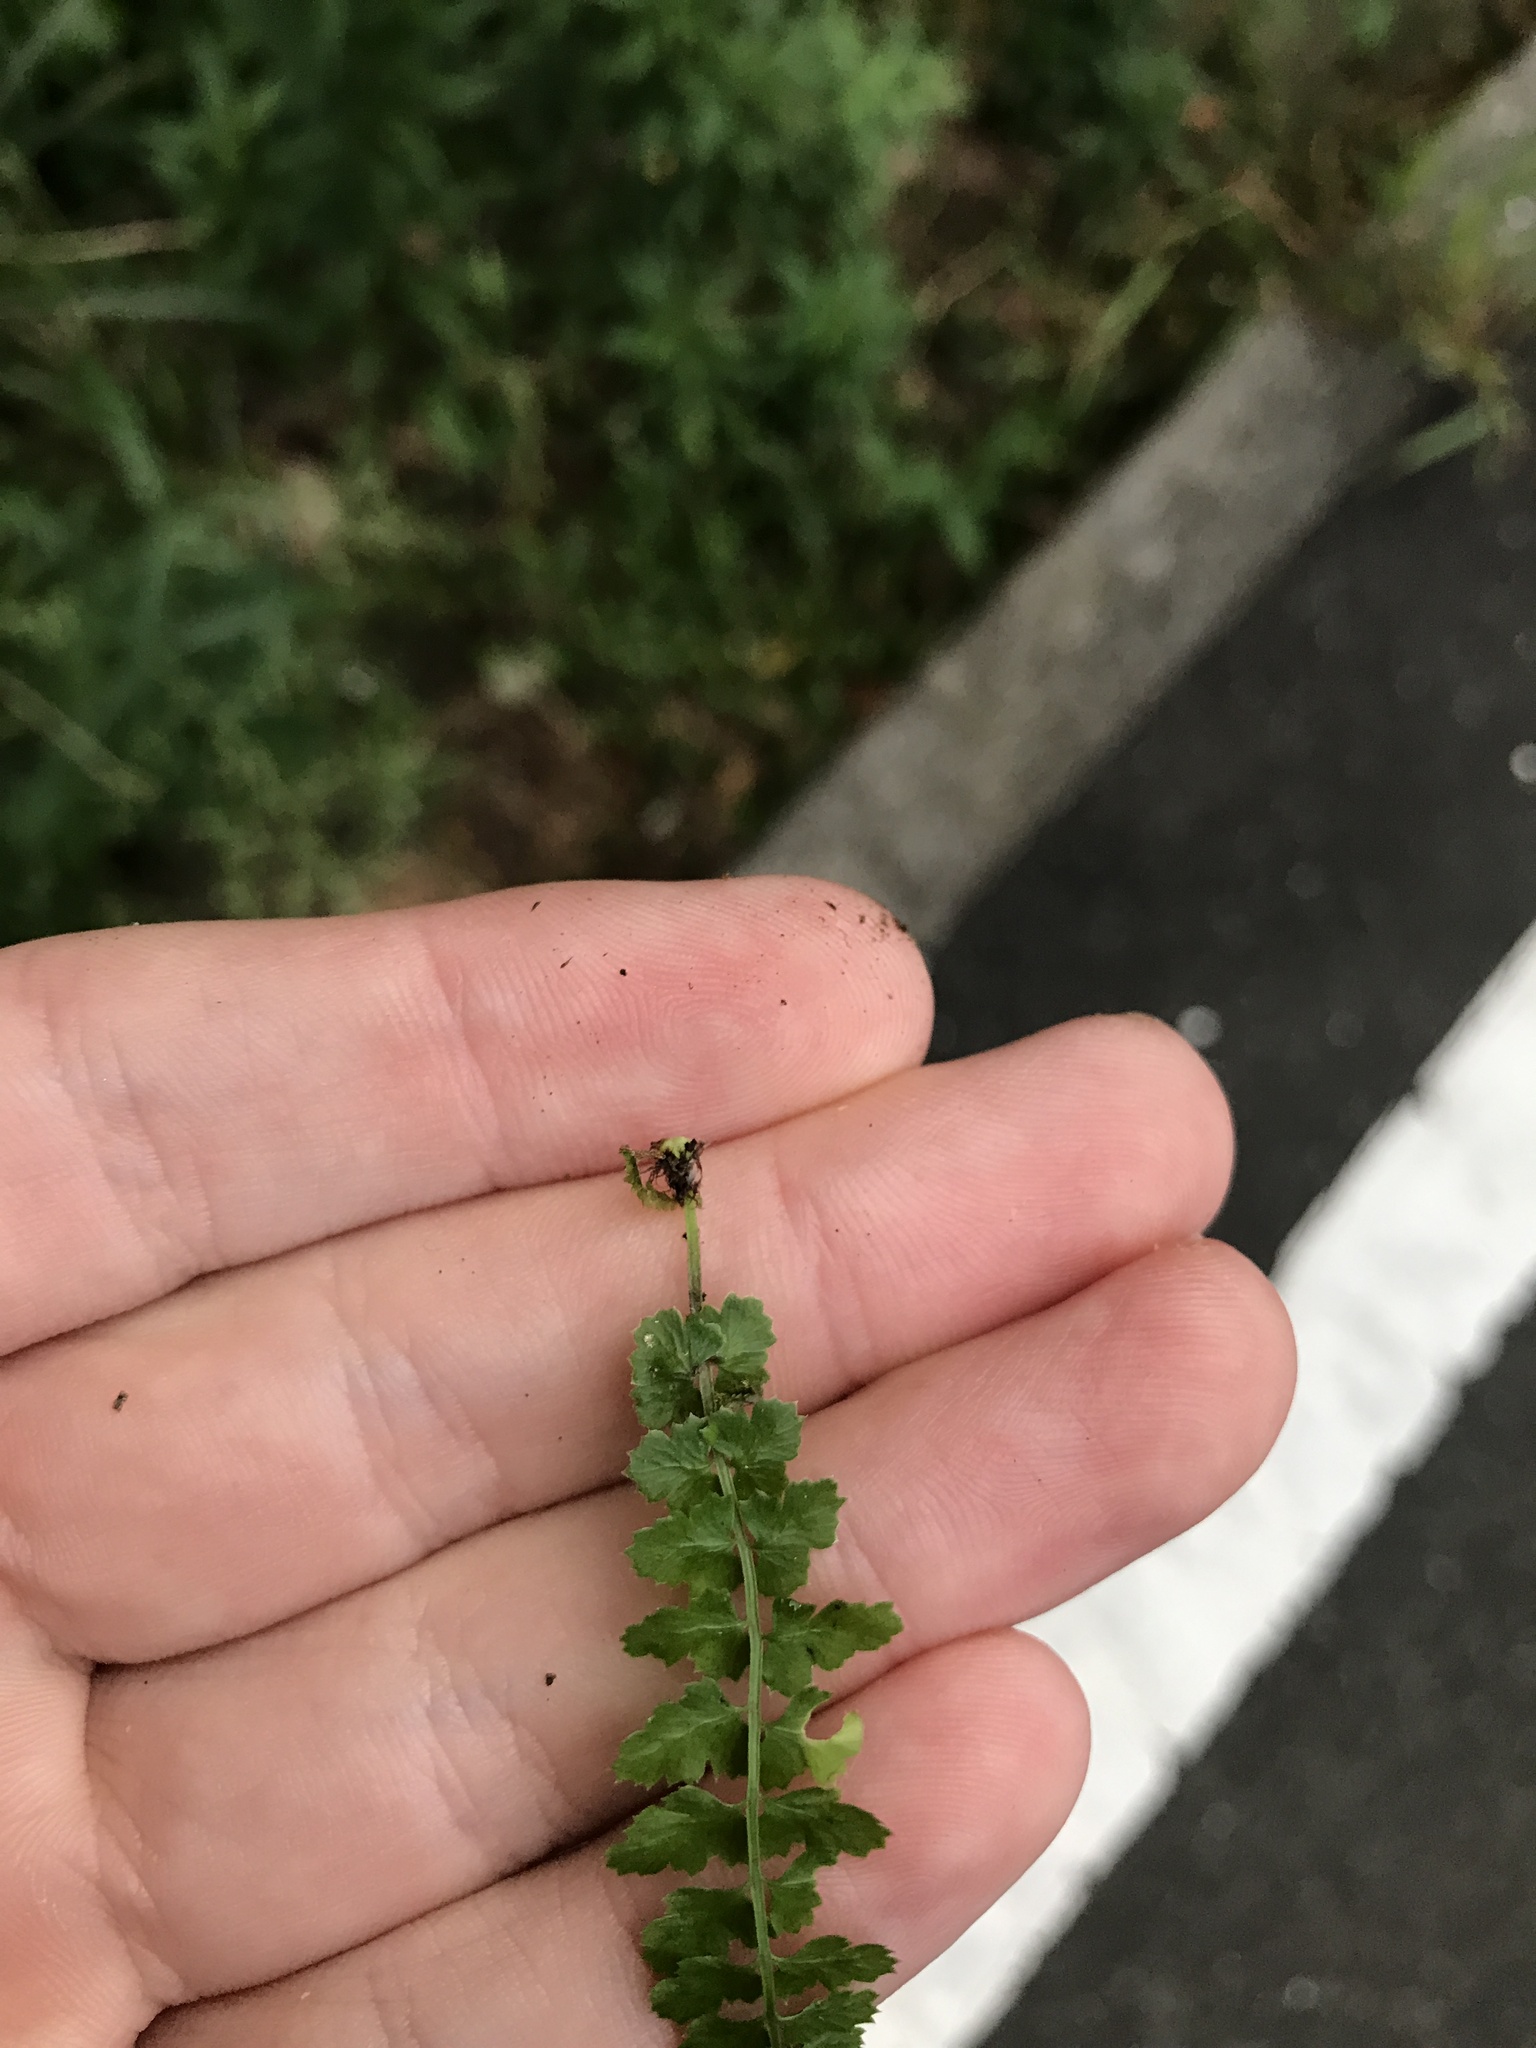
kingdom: Plantae
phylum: Tracheophyta
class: Polypodiopsida
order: Polypodiales
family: Aspleniaceae
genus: Asplenium
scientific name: Asplenium incisum
